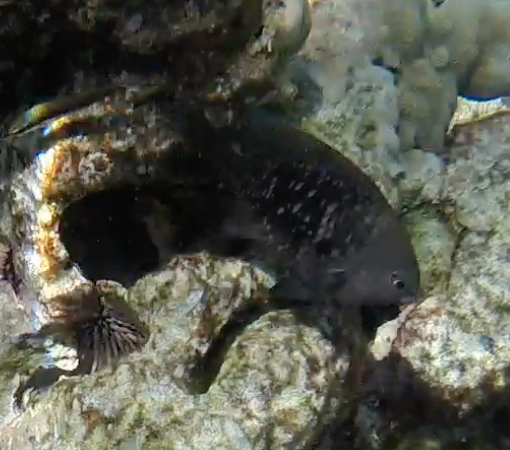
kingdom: Animalia
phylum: Chordata
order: Perciformes
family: Pomacentridae
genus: Stegastes
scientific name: Stegastes fasciolatus
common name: Pacific gregory
